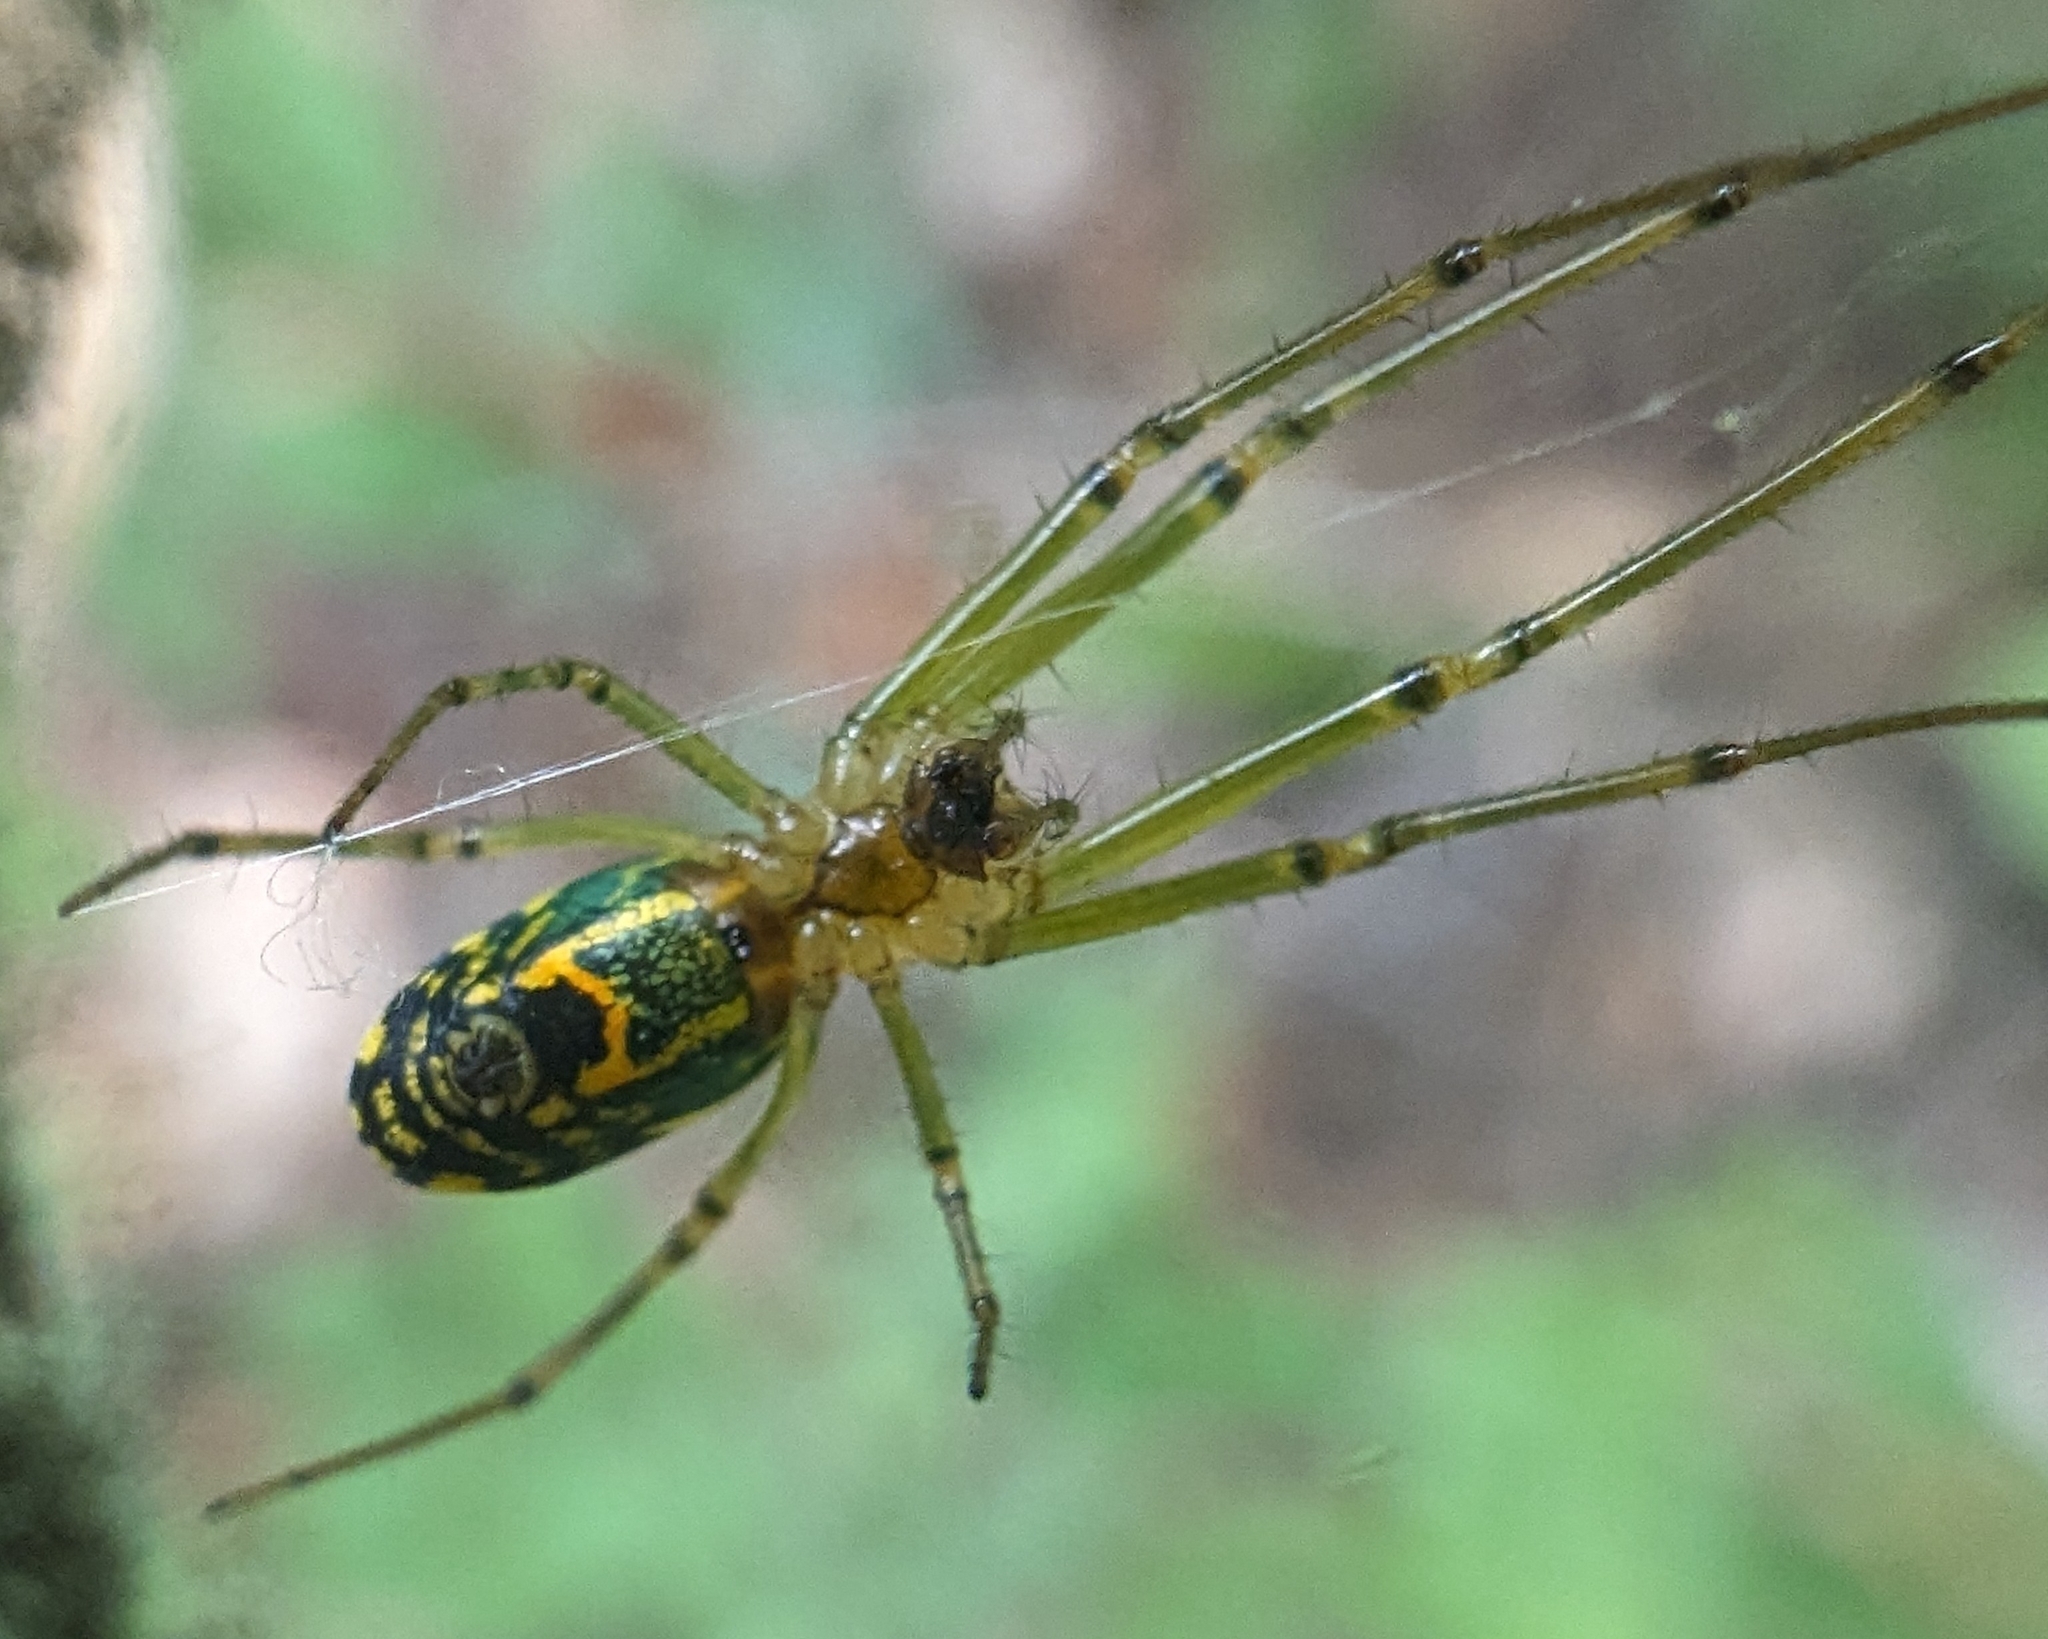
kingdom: Animalia
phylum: Arthropoda
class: Arachnida
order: Araneae
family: Tetragnathidae
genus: Leucauge
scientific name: Leucauge venusta
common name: Longjawed orb weavers
